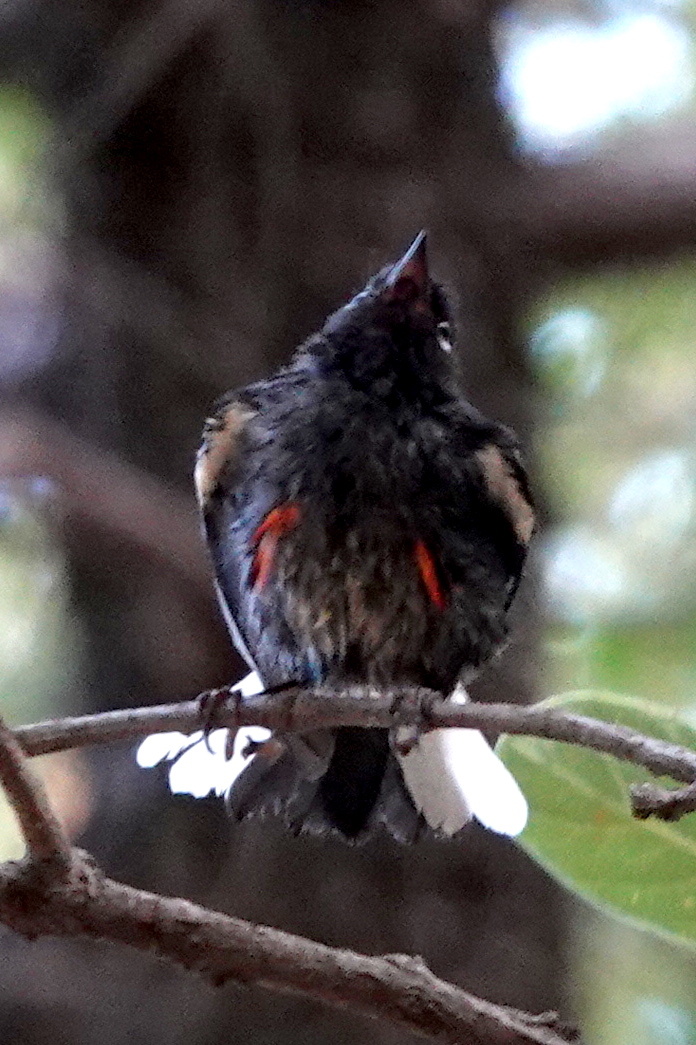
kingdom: Animalia
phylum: Chordata
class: Aves
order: Passeriformes
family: Parulidae
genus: Myioborus
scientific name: Myioborus pictus
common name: Painted whitestart
